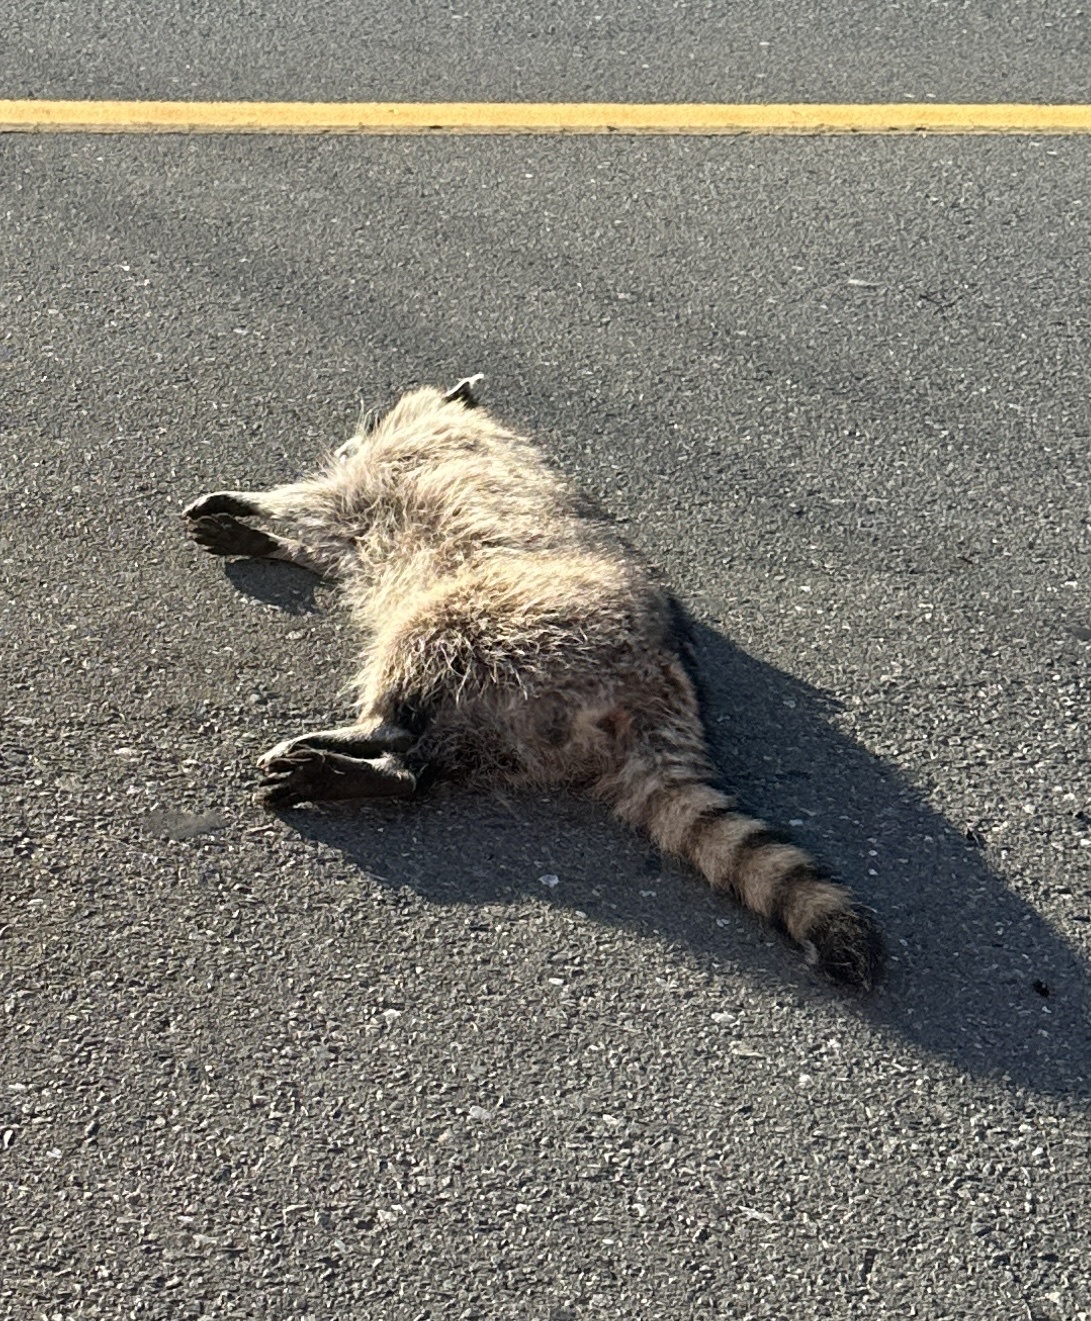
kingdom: Animalia
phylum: Chordata
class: Mammalia
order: Carnivora
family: Procyonidae
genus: Procyon
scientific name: Procyon lotor
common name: Raccoon
